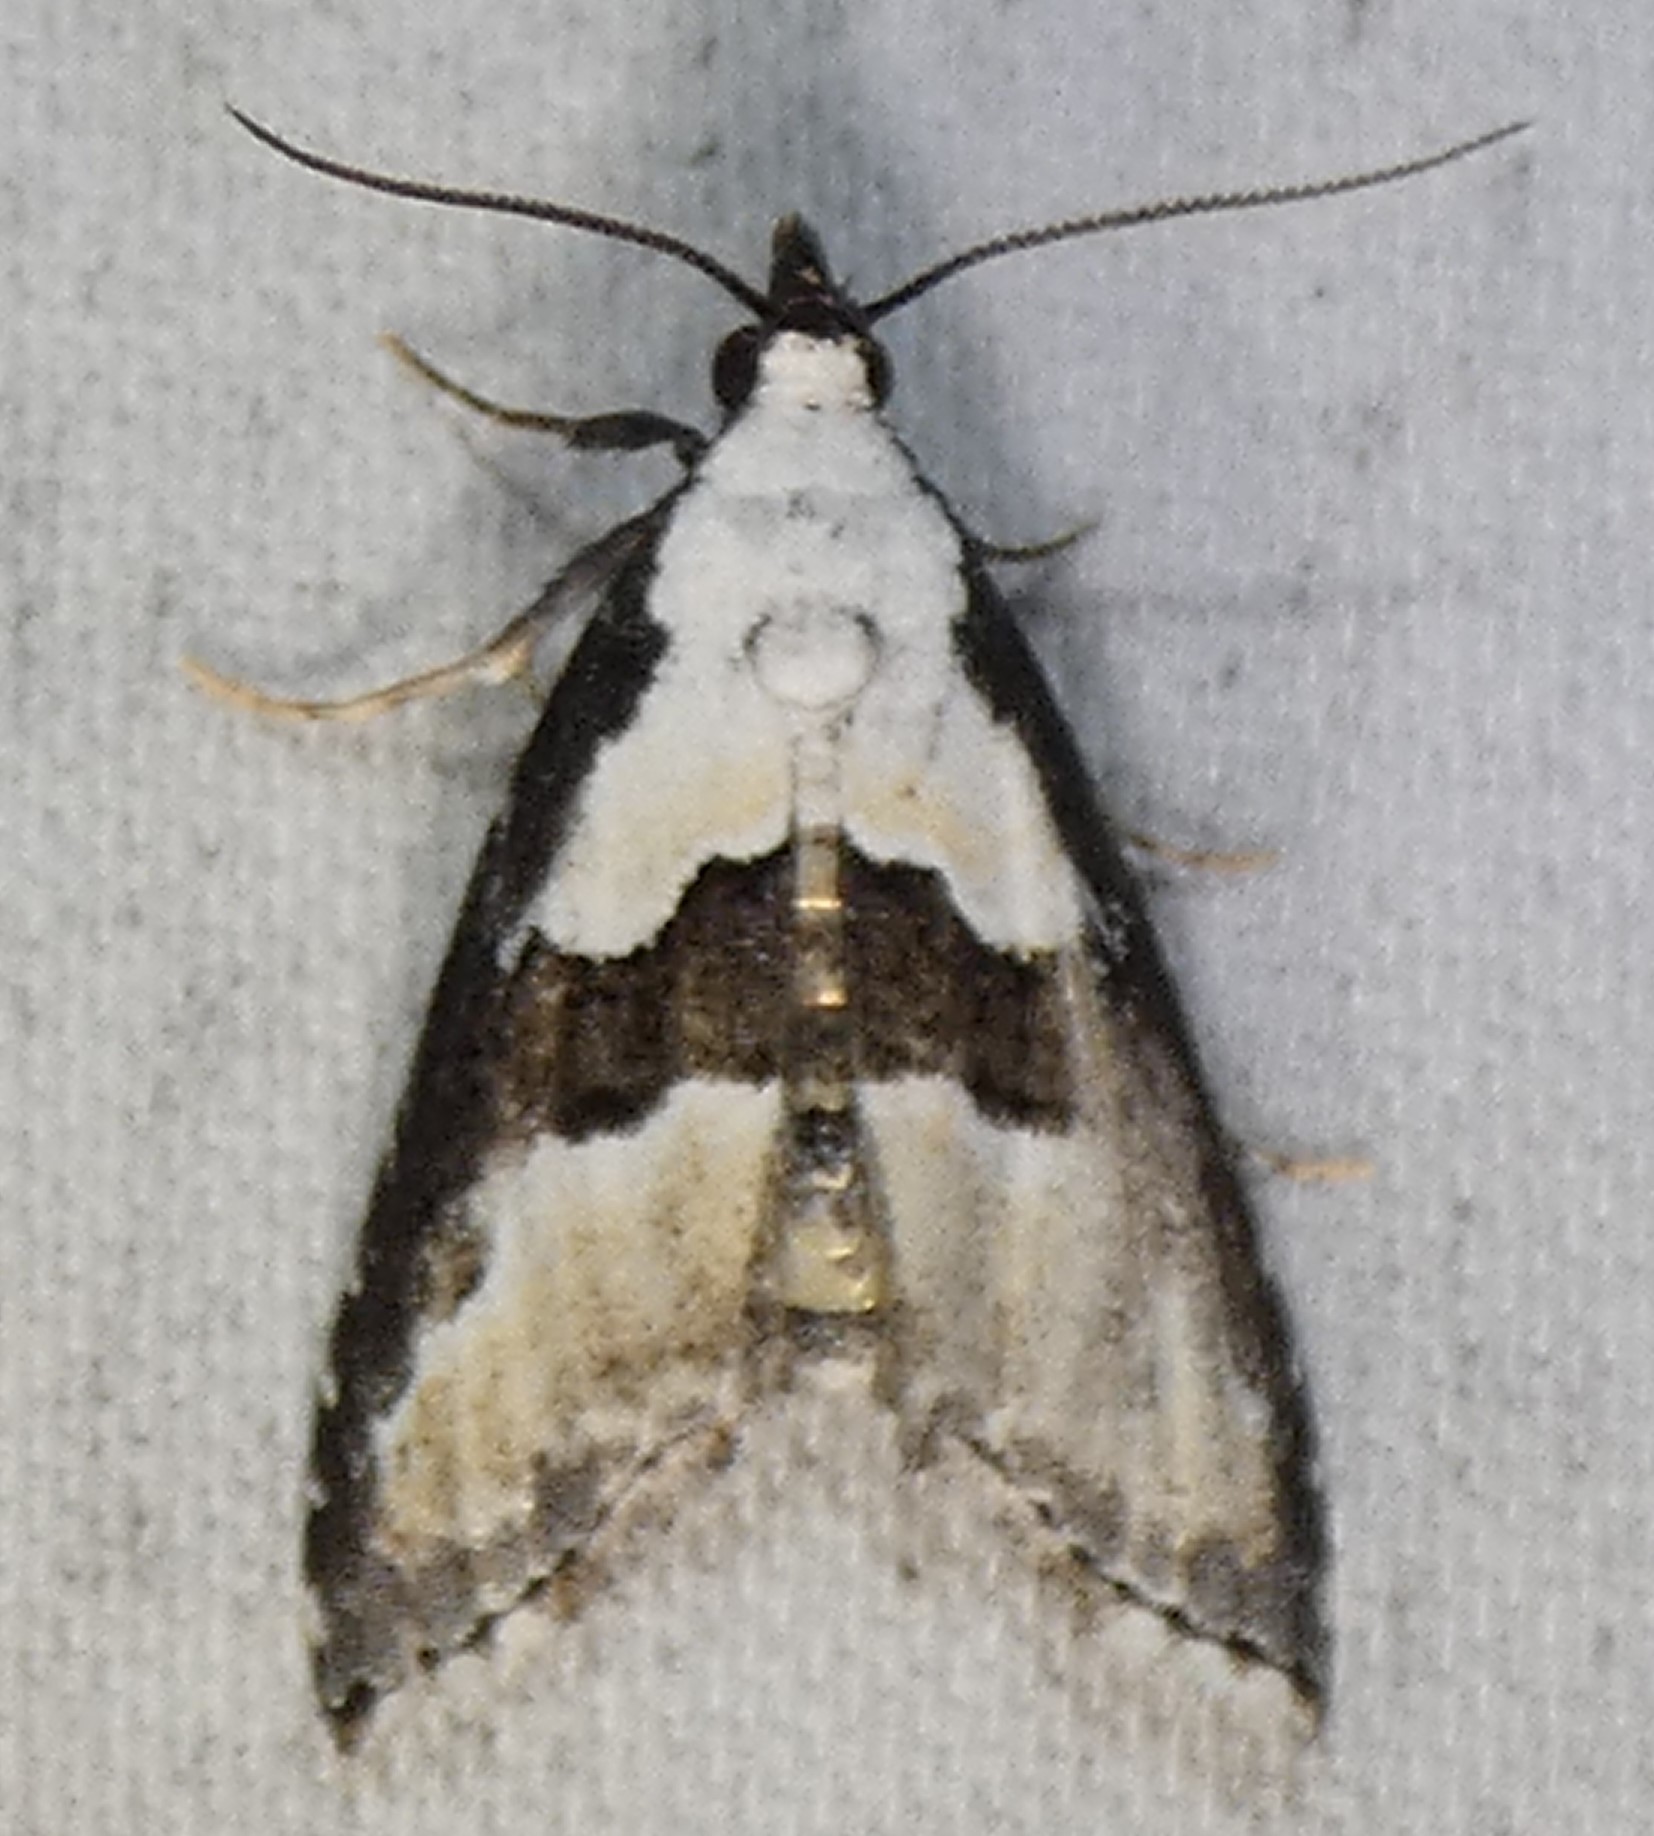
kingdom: Animalia
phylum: Arthropoda
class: Insecta
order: Lepidoptera
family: Noctuidae
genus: Nigetia
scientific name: Nigetia formosalis
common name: Thin-winged owlet
